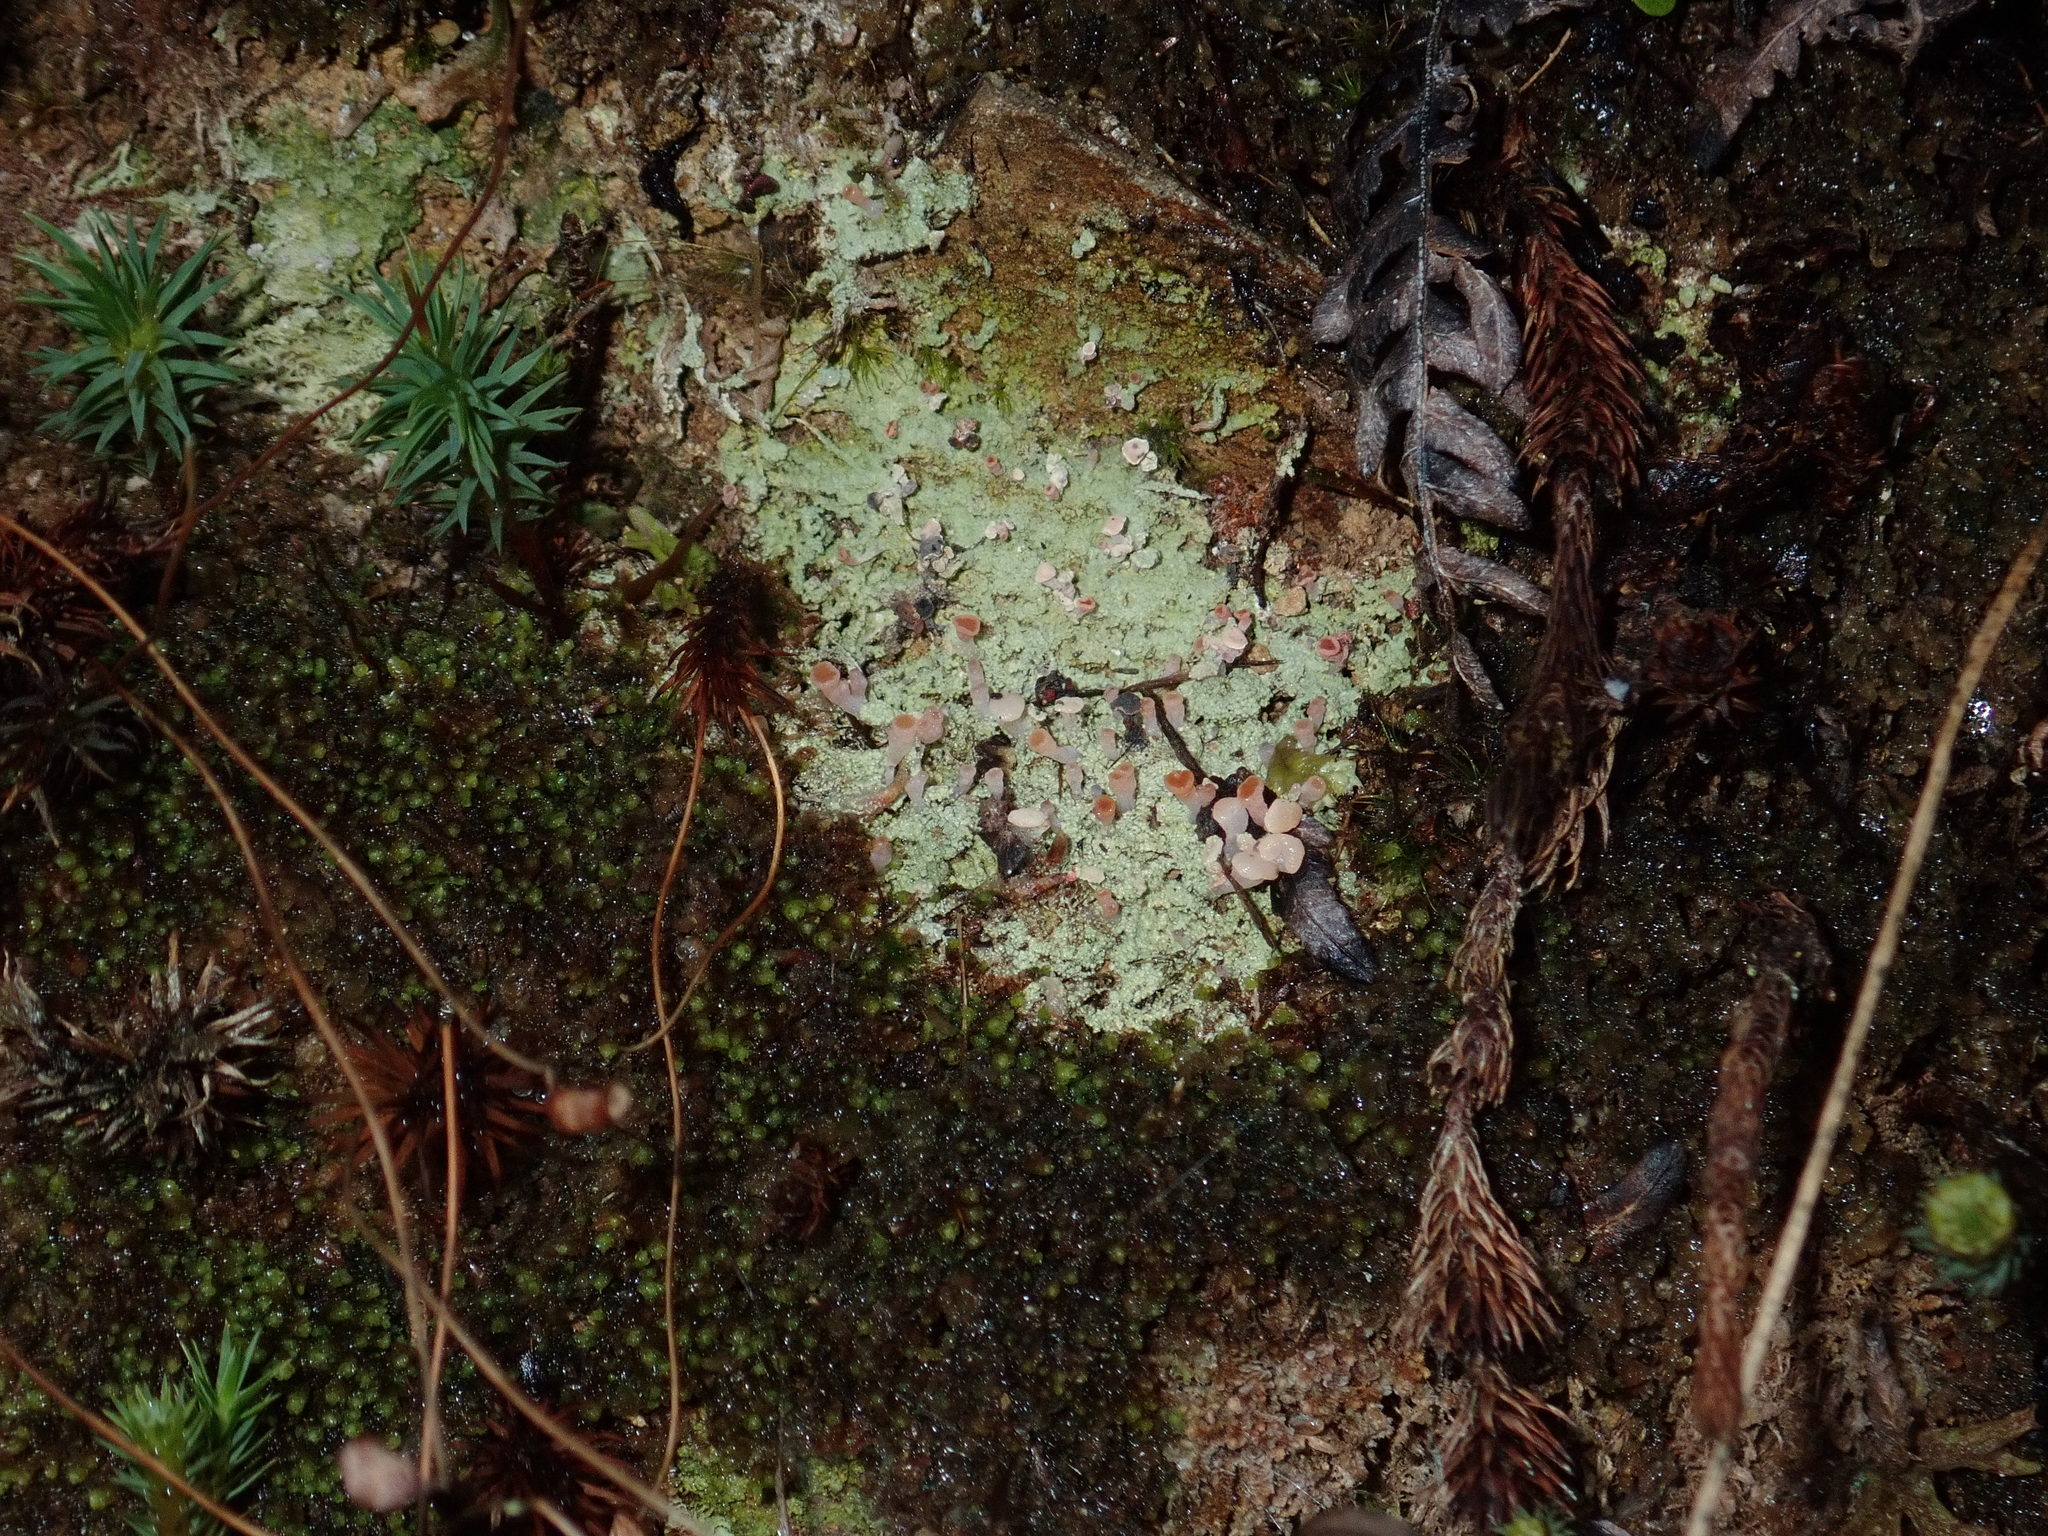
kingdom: Fungi
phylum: Ascomycota
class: Lecanoromycetes
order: Baeomycetales
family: Baeomycetaceae
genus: Baeomyces
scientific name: Baeomyces heteromorphus
